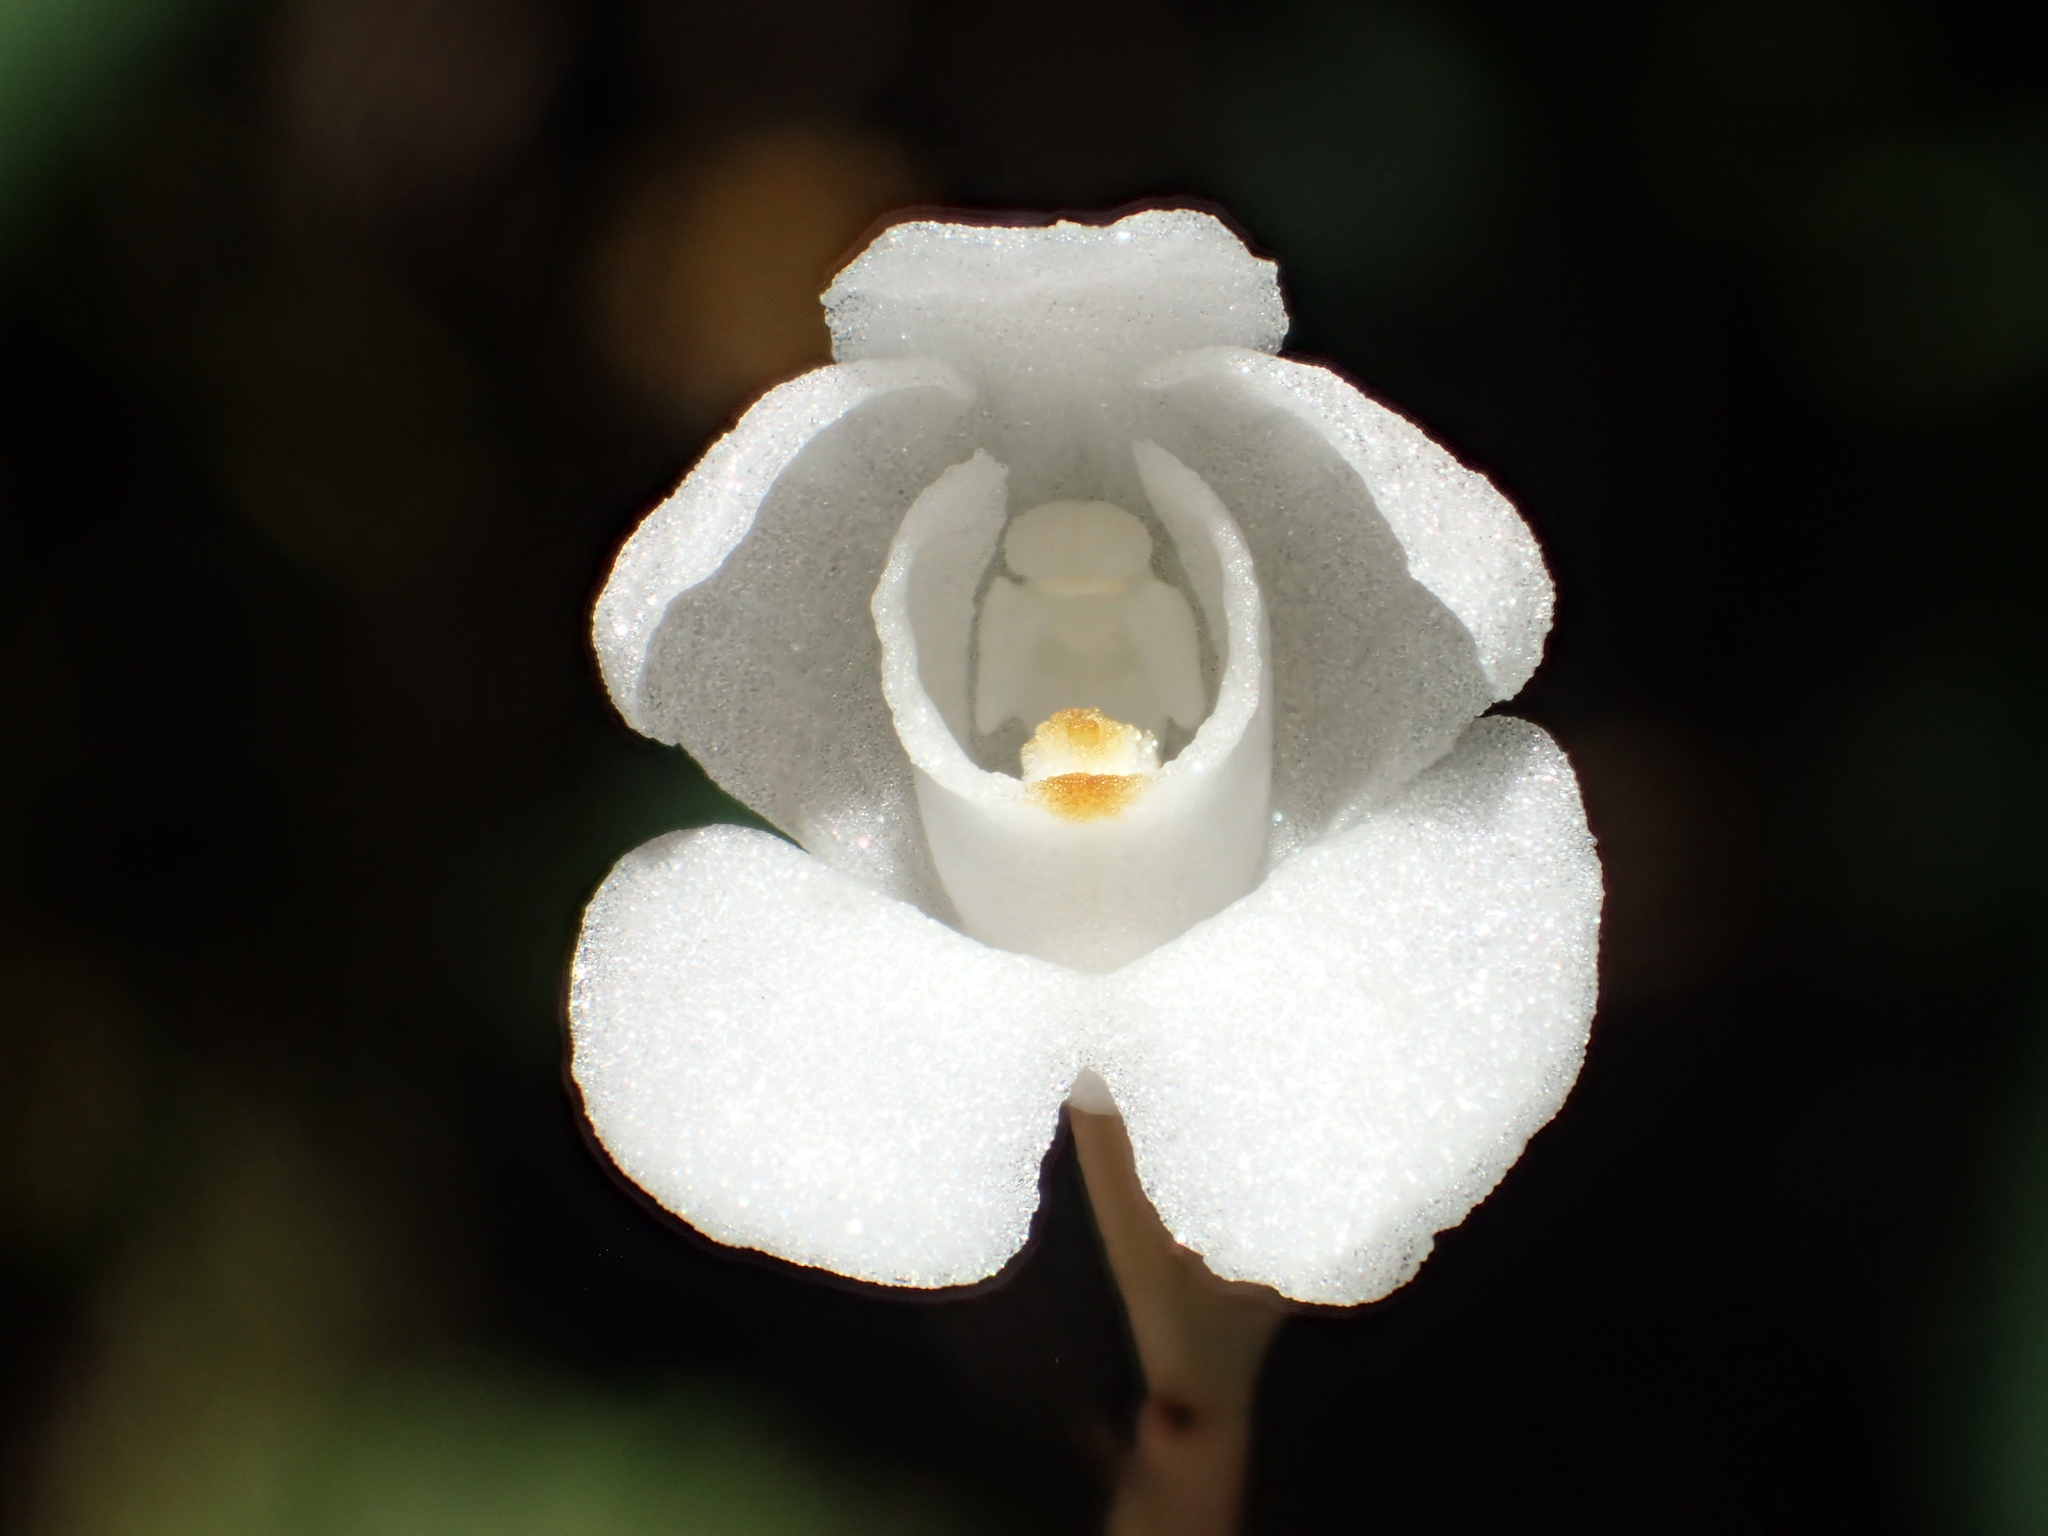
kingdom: Plantae
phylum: Tracheophyta
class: Liliopsida
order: Asparagales
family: Orchidaceae
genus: Didymoplexis
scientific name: Didymoplexis pallens
